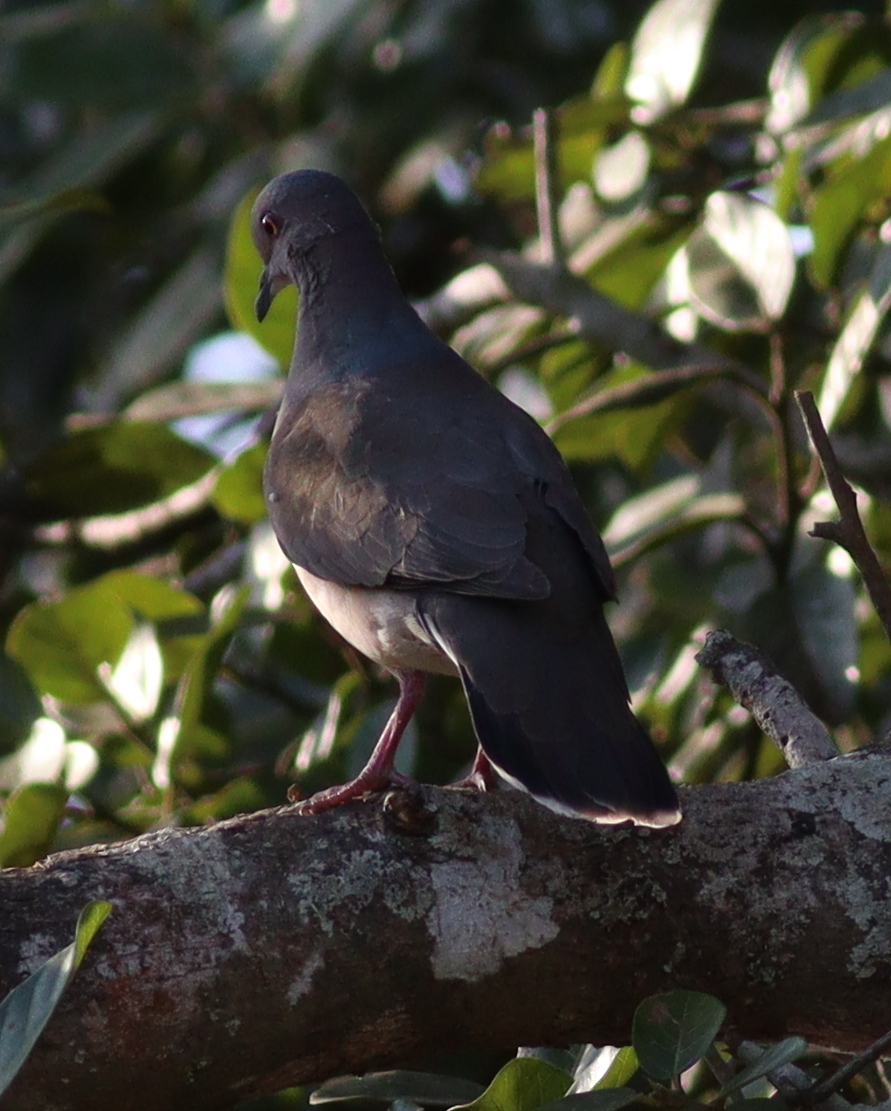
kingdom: Animalia
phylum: Chordata
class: Aves
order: Columbiformes
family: Columbidae
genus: Leptotila
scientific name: Leptotila verreauxi
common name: White-tipped dove
